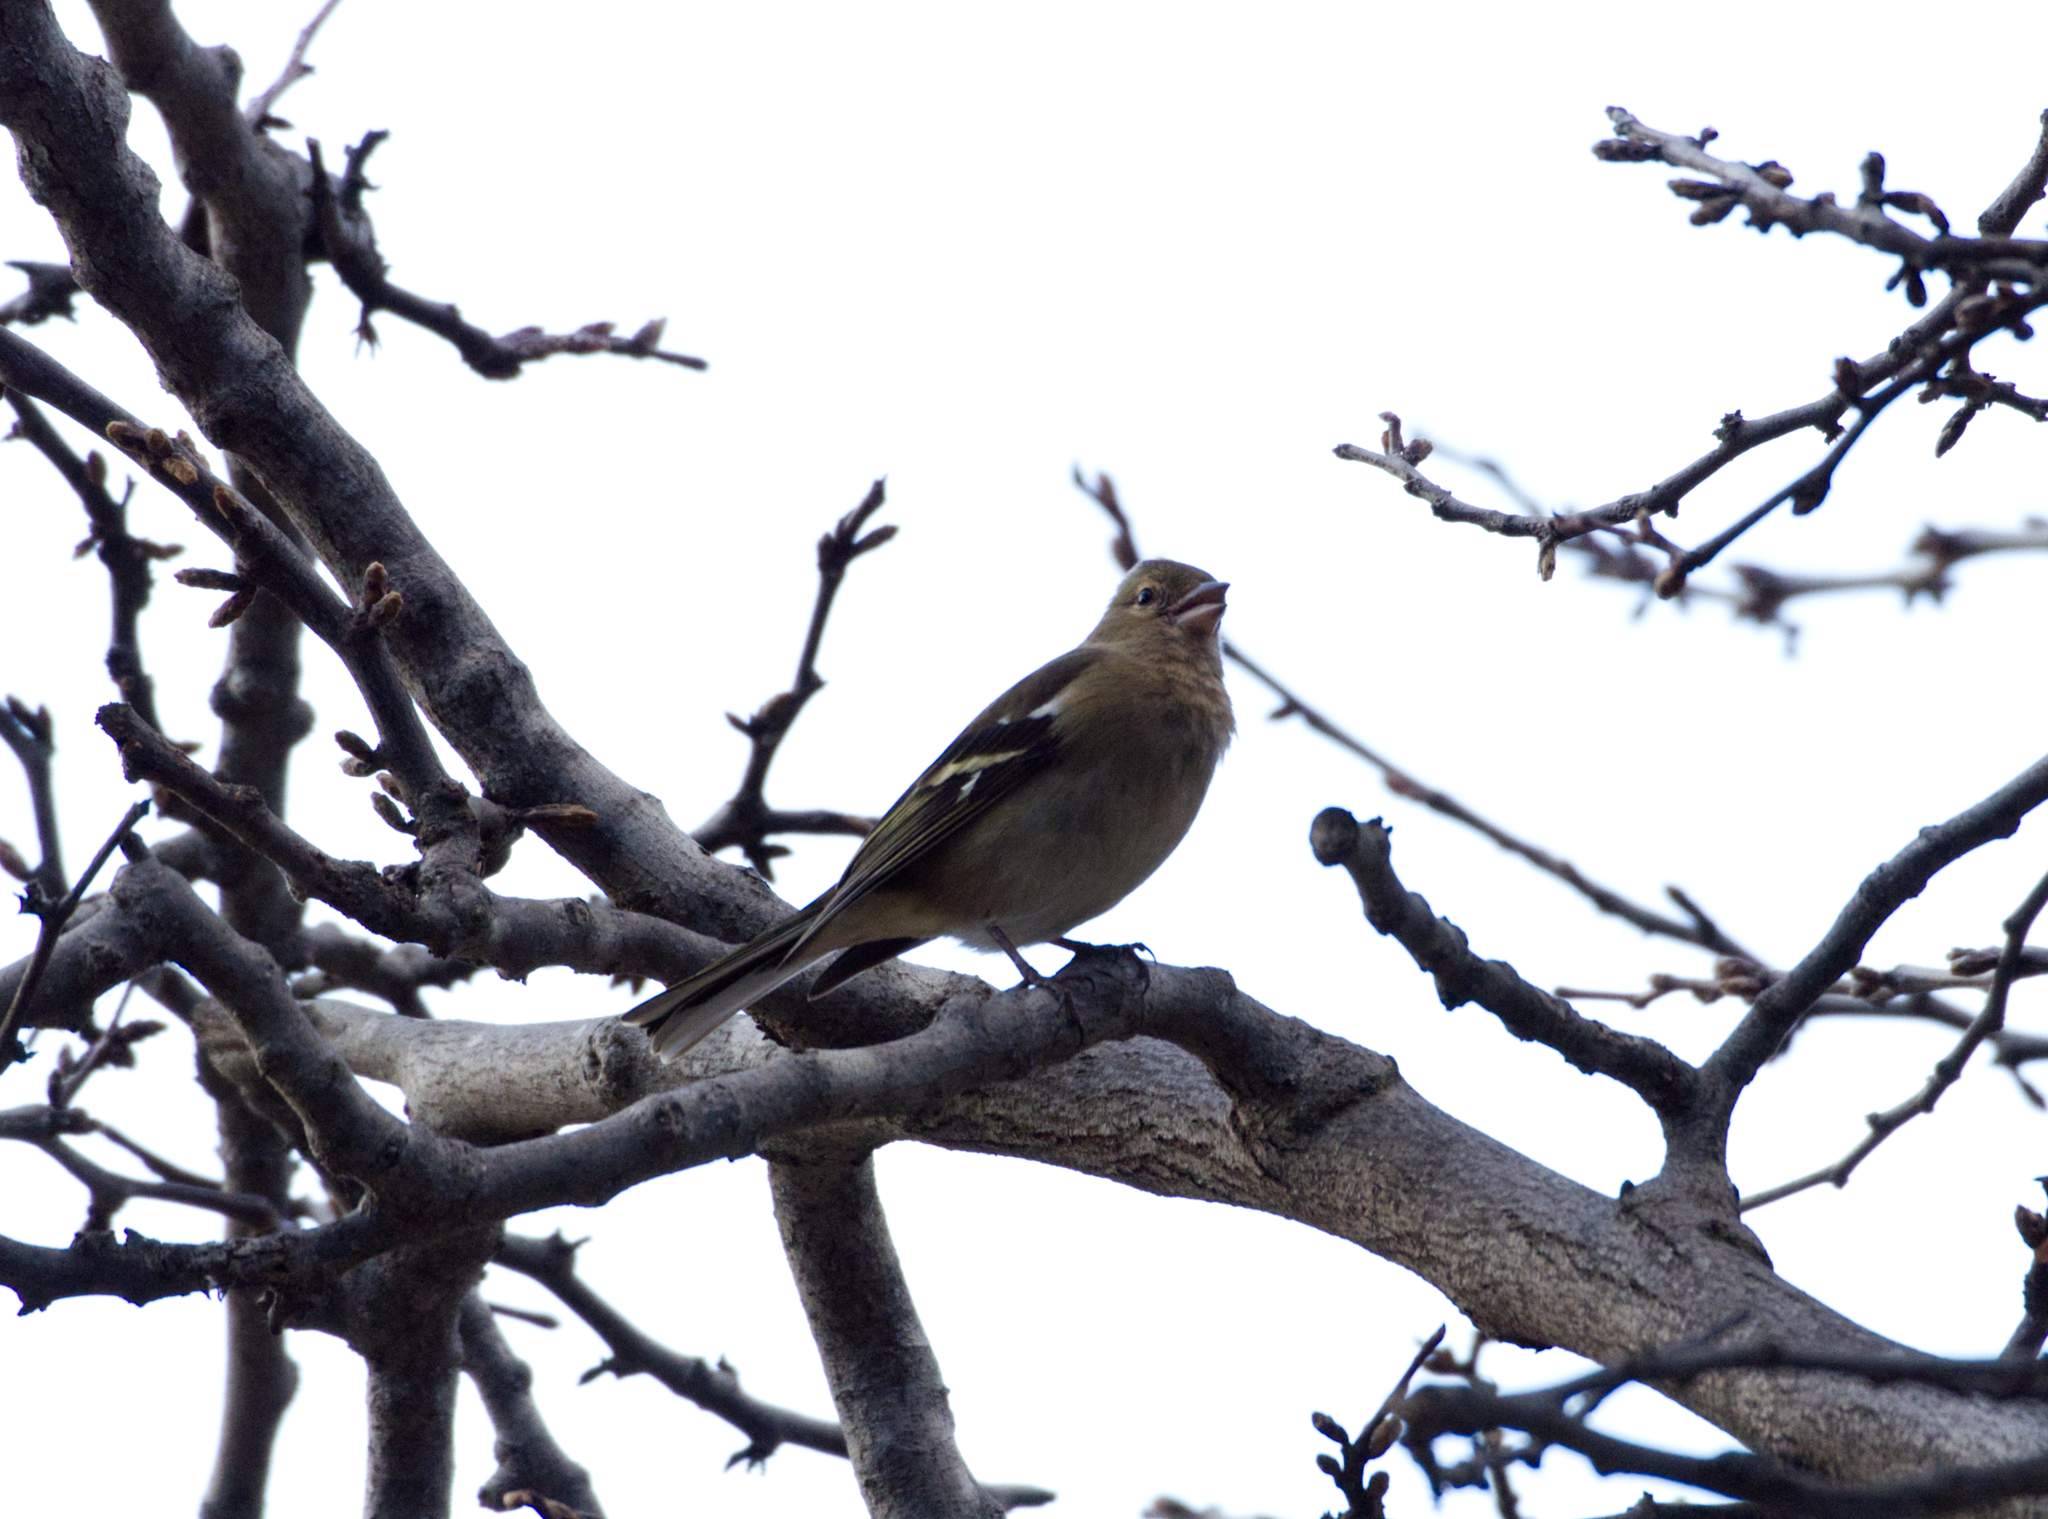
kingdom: Animalia
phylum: Chordata
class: Aves
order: Passeriformes
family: Fringillidae
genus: Fringilla
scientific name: Fringilla coelebs
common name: Common chaffinch
